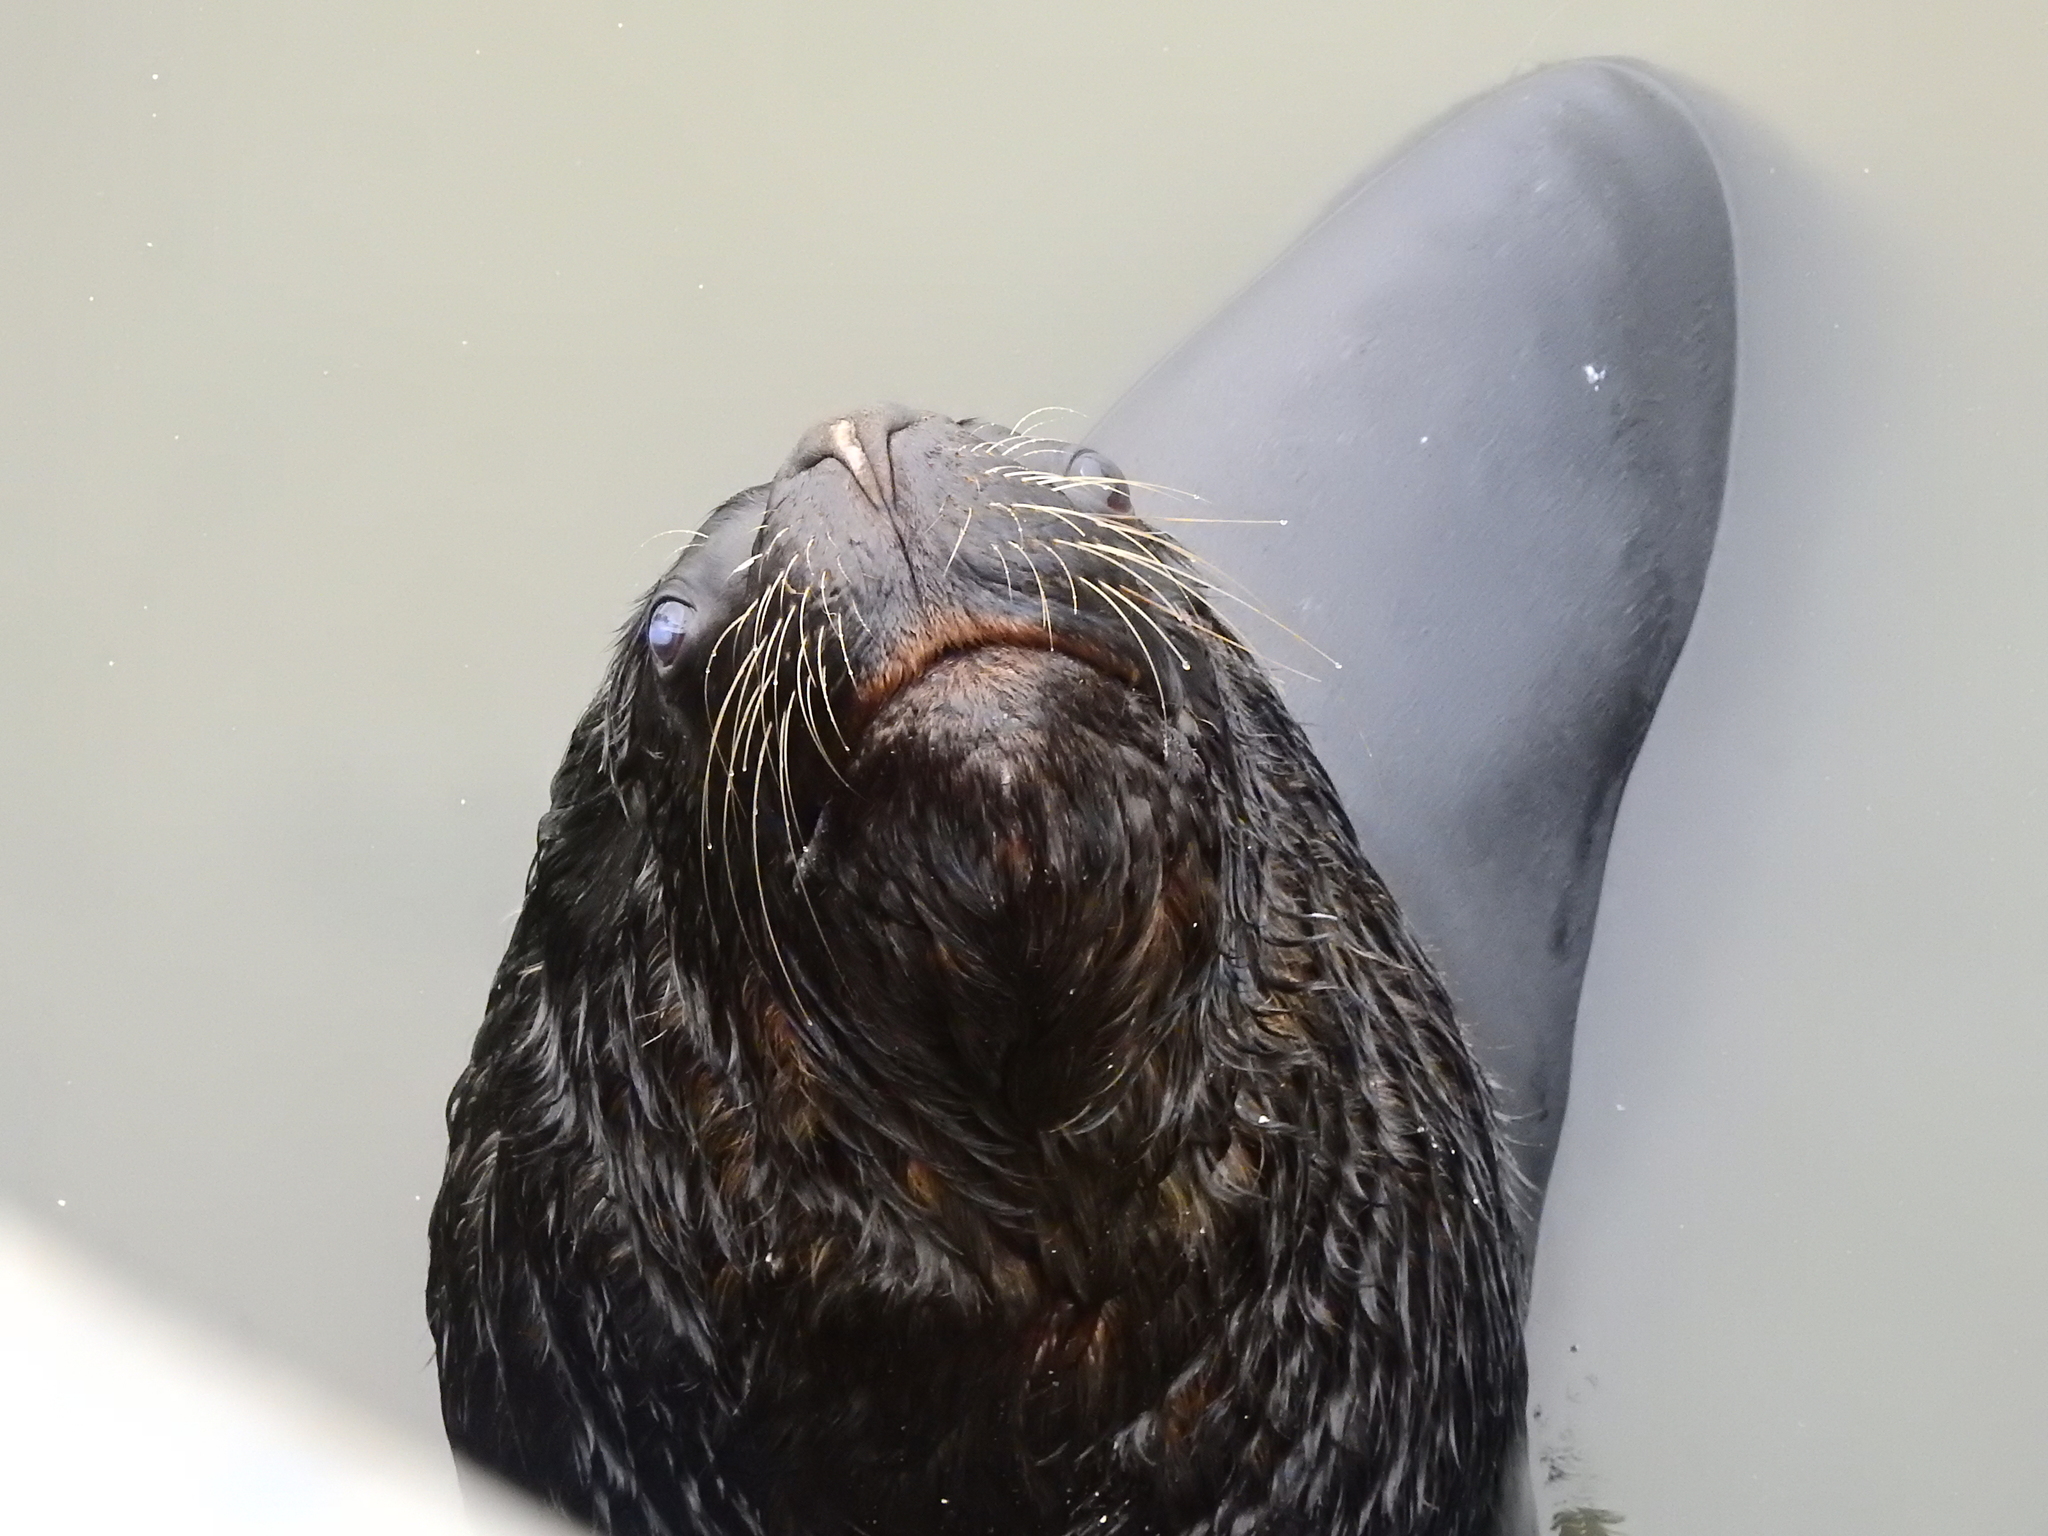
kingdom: Animalia
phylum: Chordata
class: Mammalia
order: Carnivora
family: Otariidae
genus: Otaria
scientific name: Otaria byronia
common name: South american sea lion
